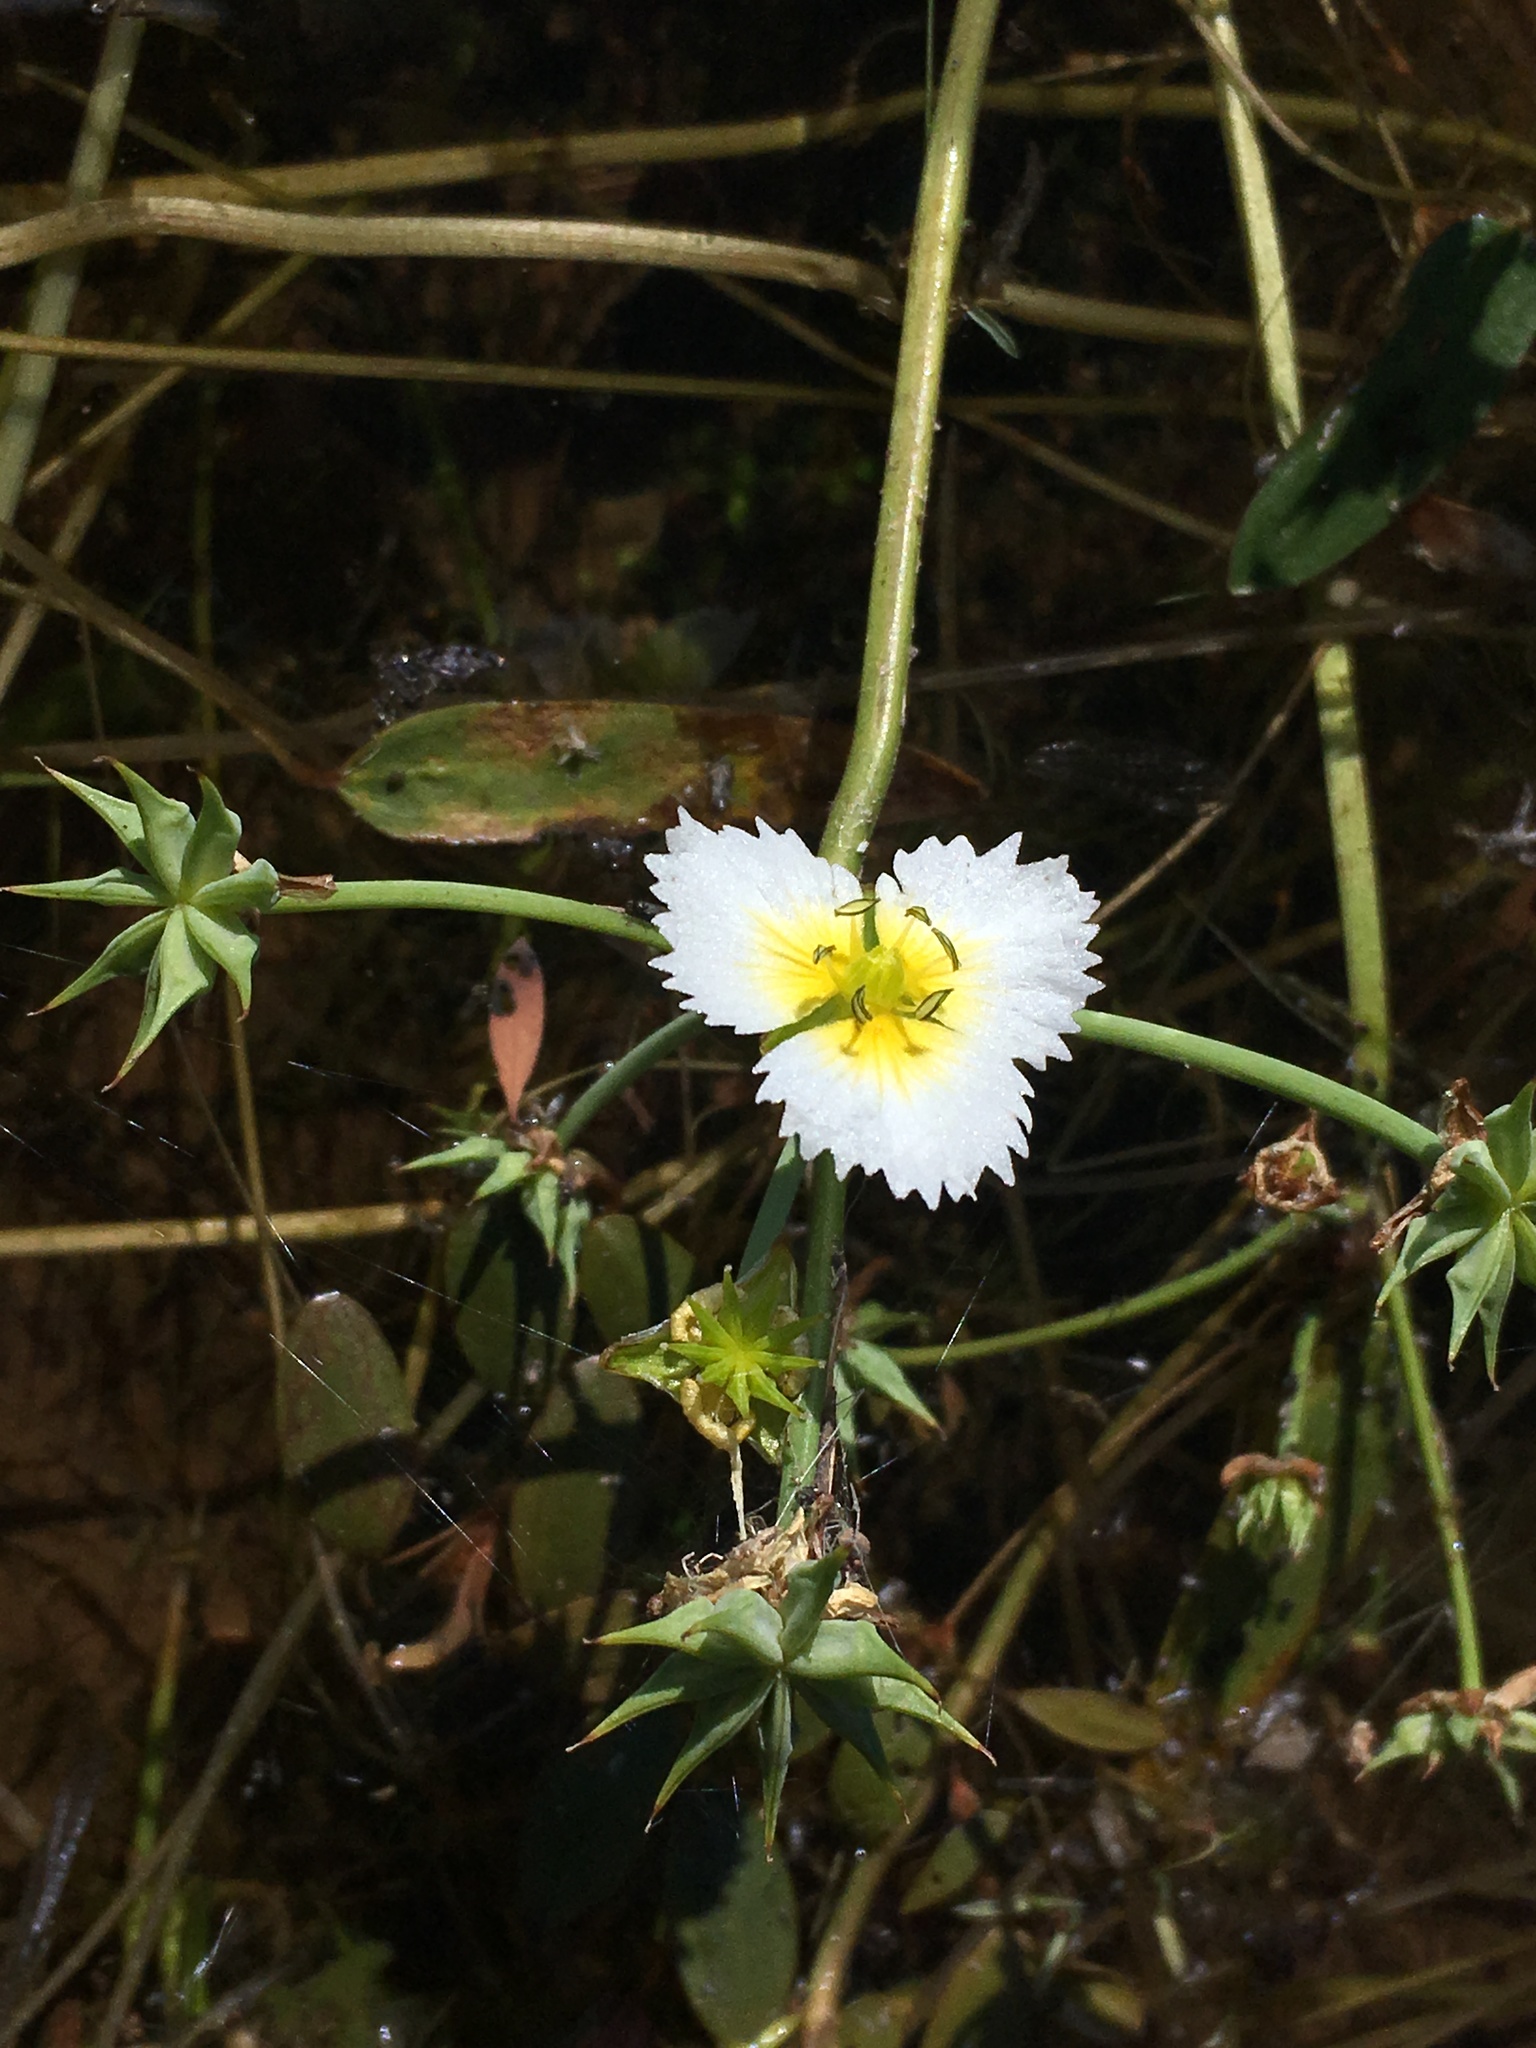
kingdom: Plantae
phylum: Tracheophyta
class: Liliopsida
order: Alismatales
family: Alismataceae
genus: Damasonium
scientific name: Damasonium californicum
